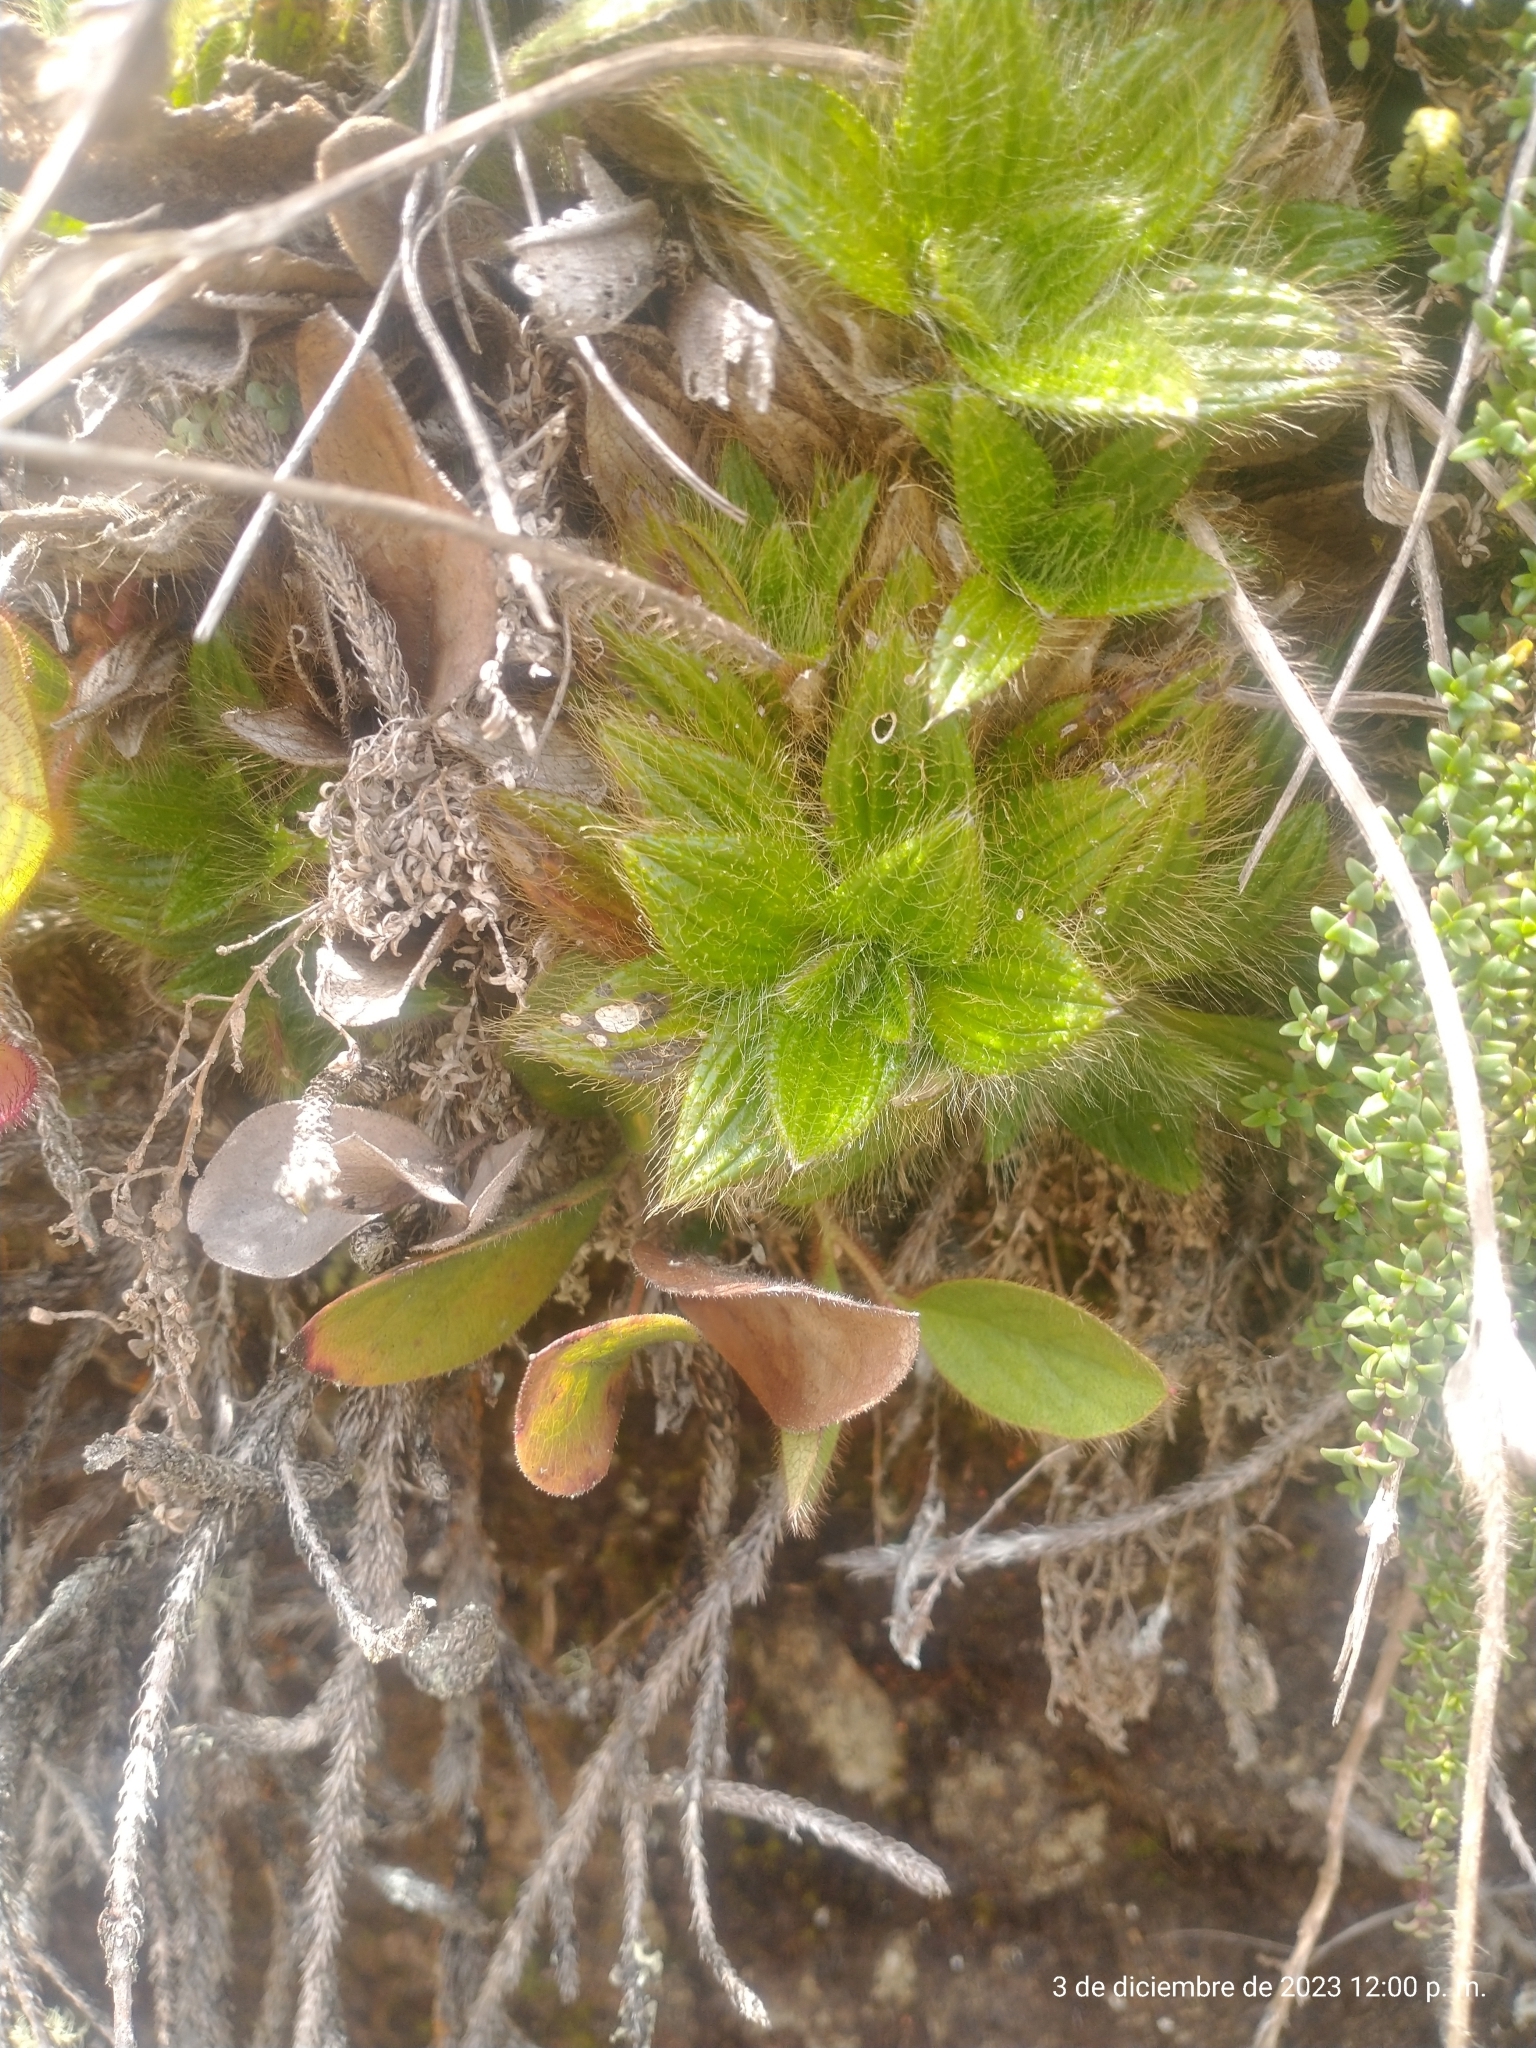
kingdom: Plantae
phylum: Tracheophyta
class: Magnoliopsida
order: Myrtales
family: Melastomataceae
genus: Castratella
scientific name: Castratella piloselloides
